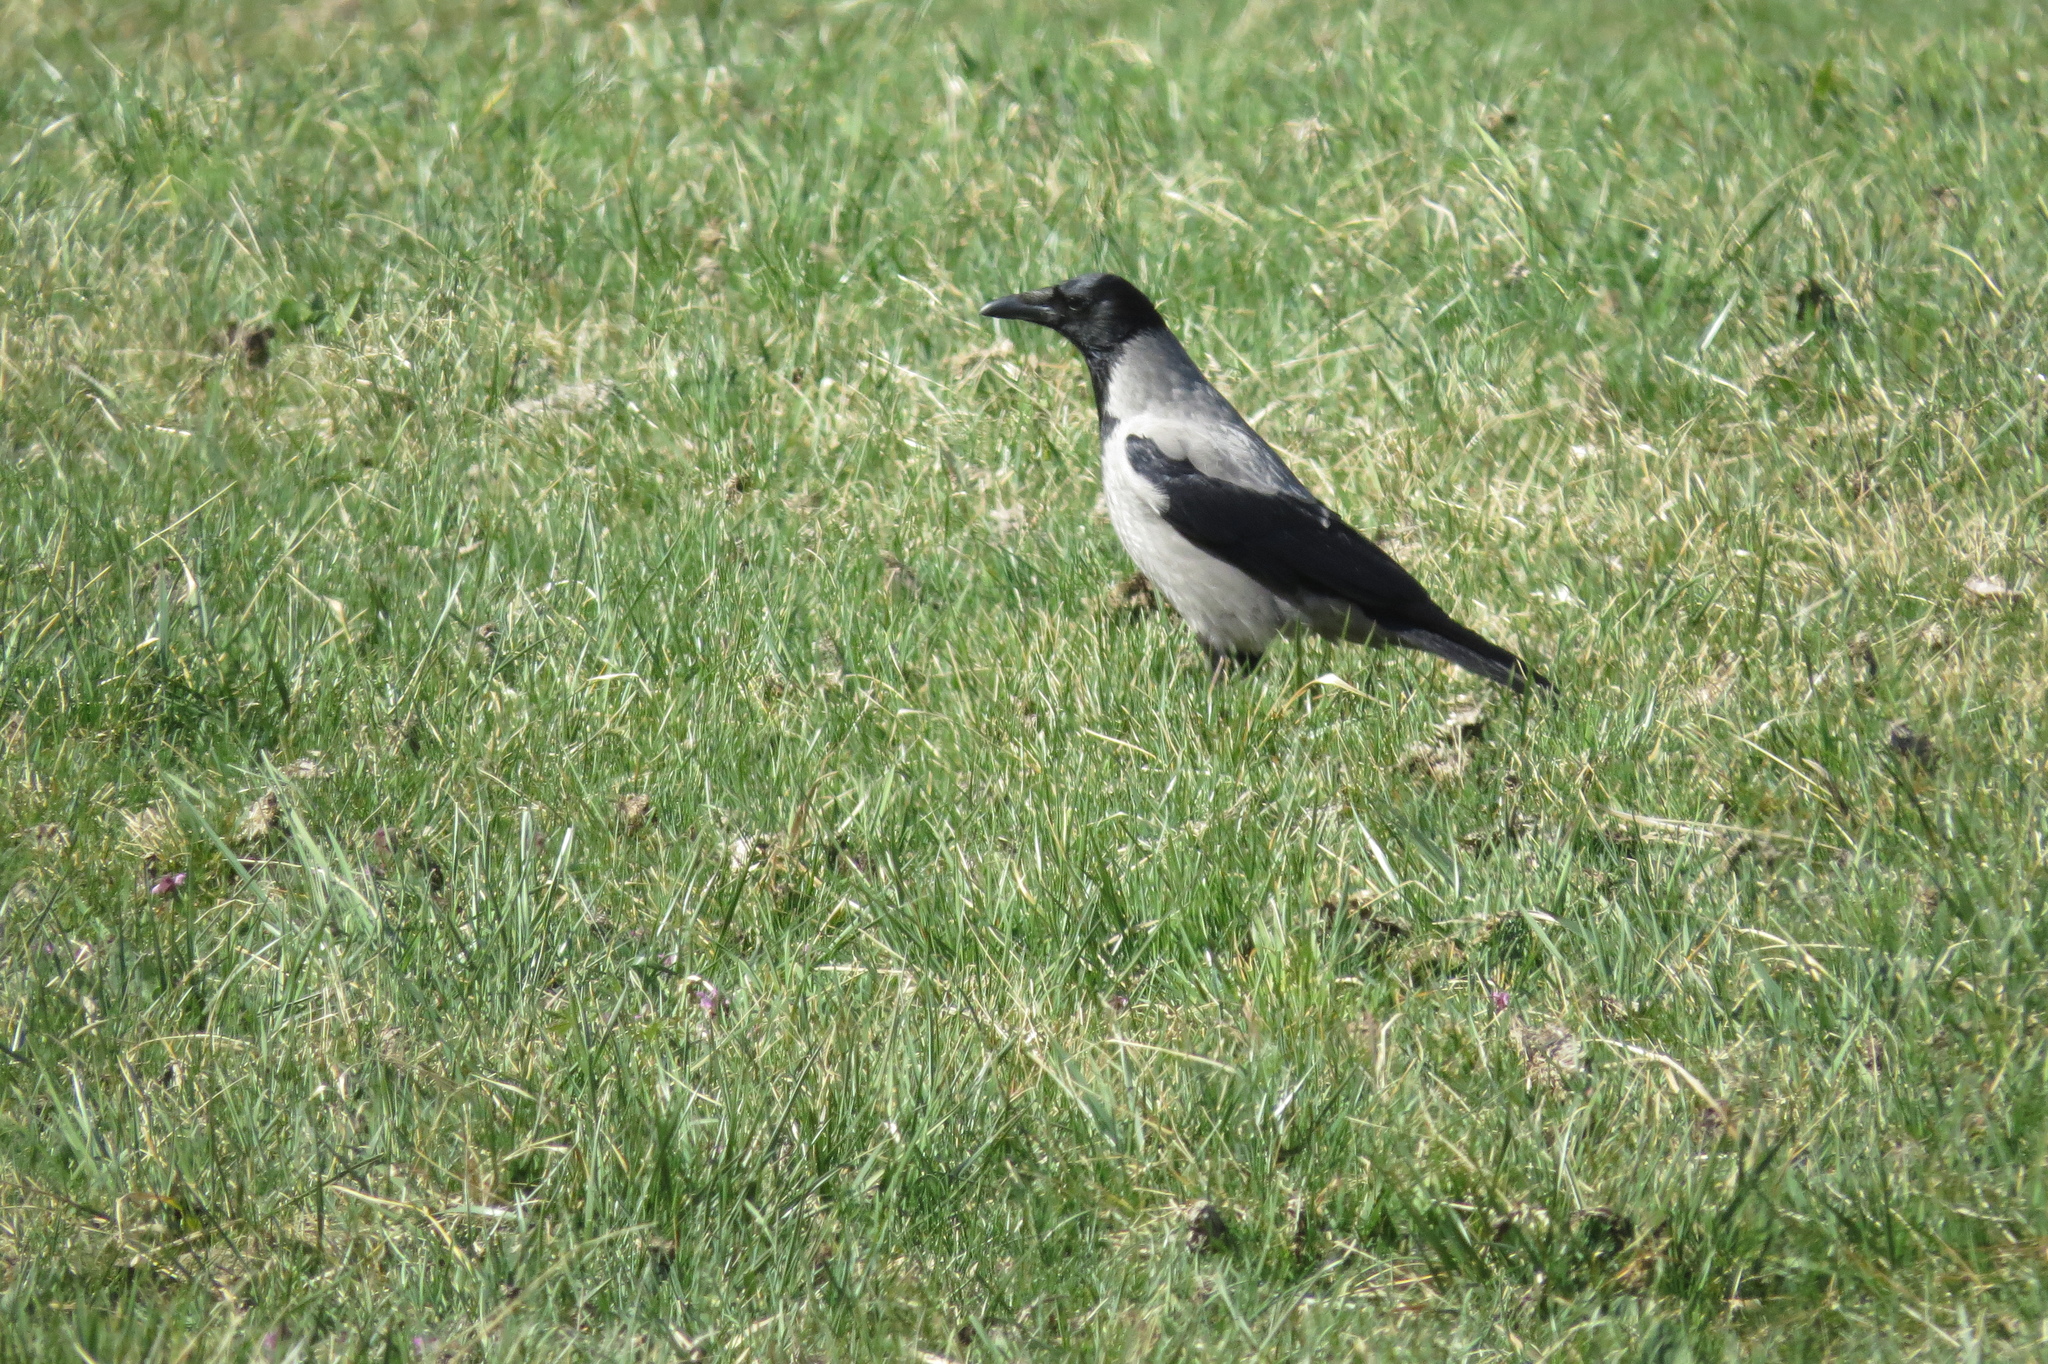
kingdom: Animalia
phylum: Chordata
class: Aves
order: Passeriformes
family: Corvidae
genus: Corvus
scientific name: Corvus cornix
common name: Hooded crow
